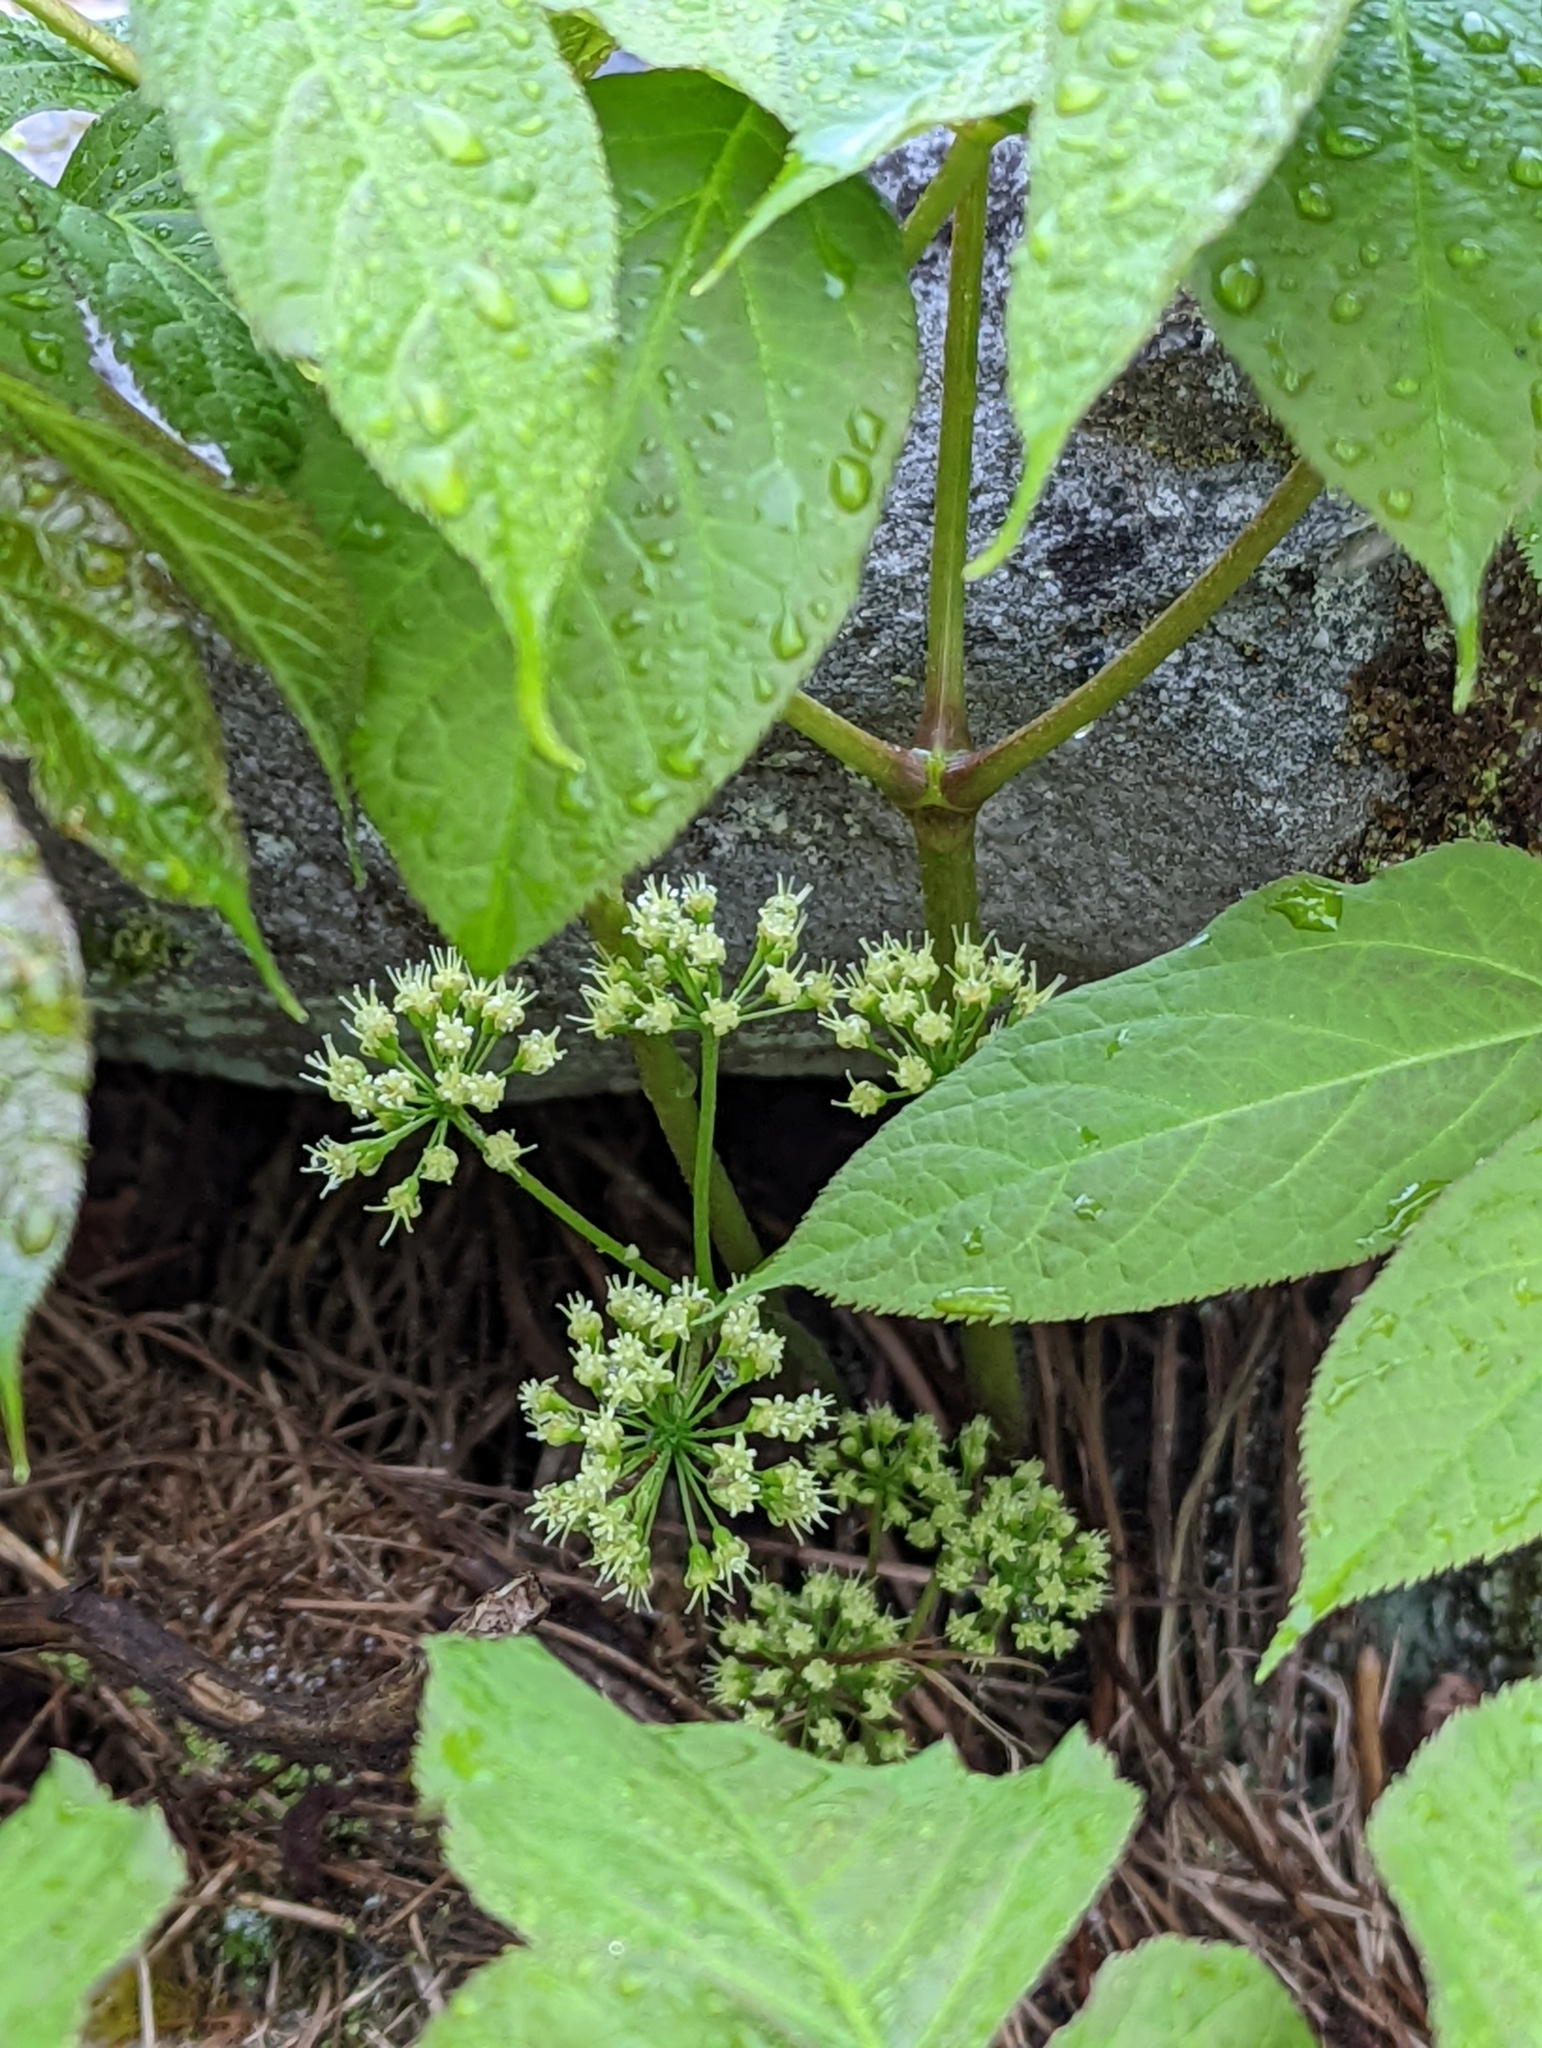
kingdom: Plantae
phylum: Tracheophyta
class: Magnoliopsida
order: Apiales
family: Araliaceae
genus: Aralia
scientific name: Aralia nudicaulis
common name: Wild sarsaparilla
